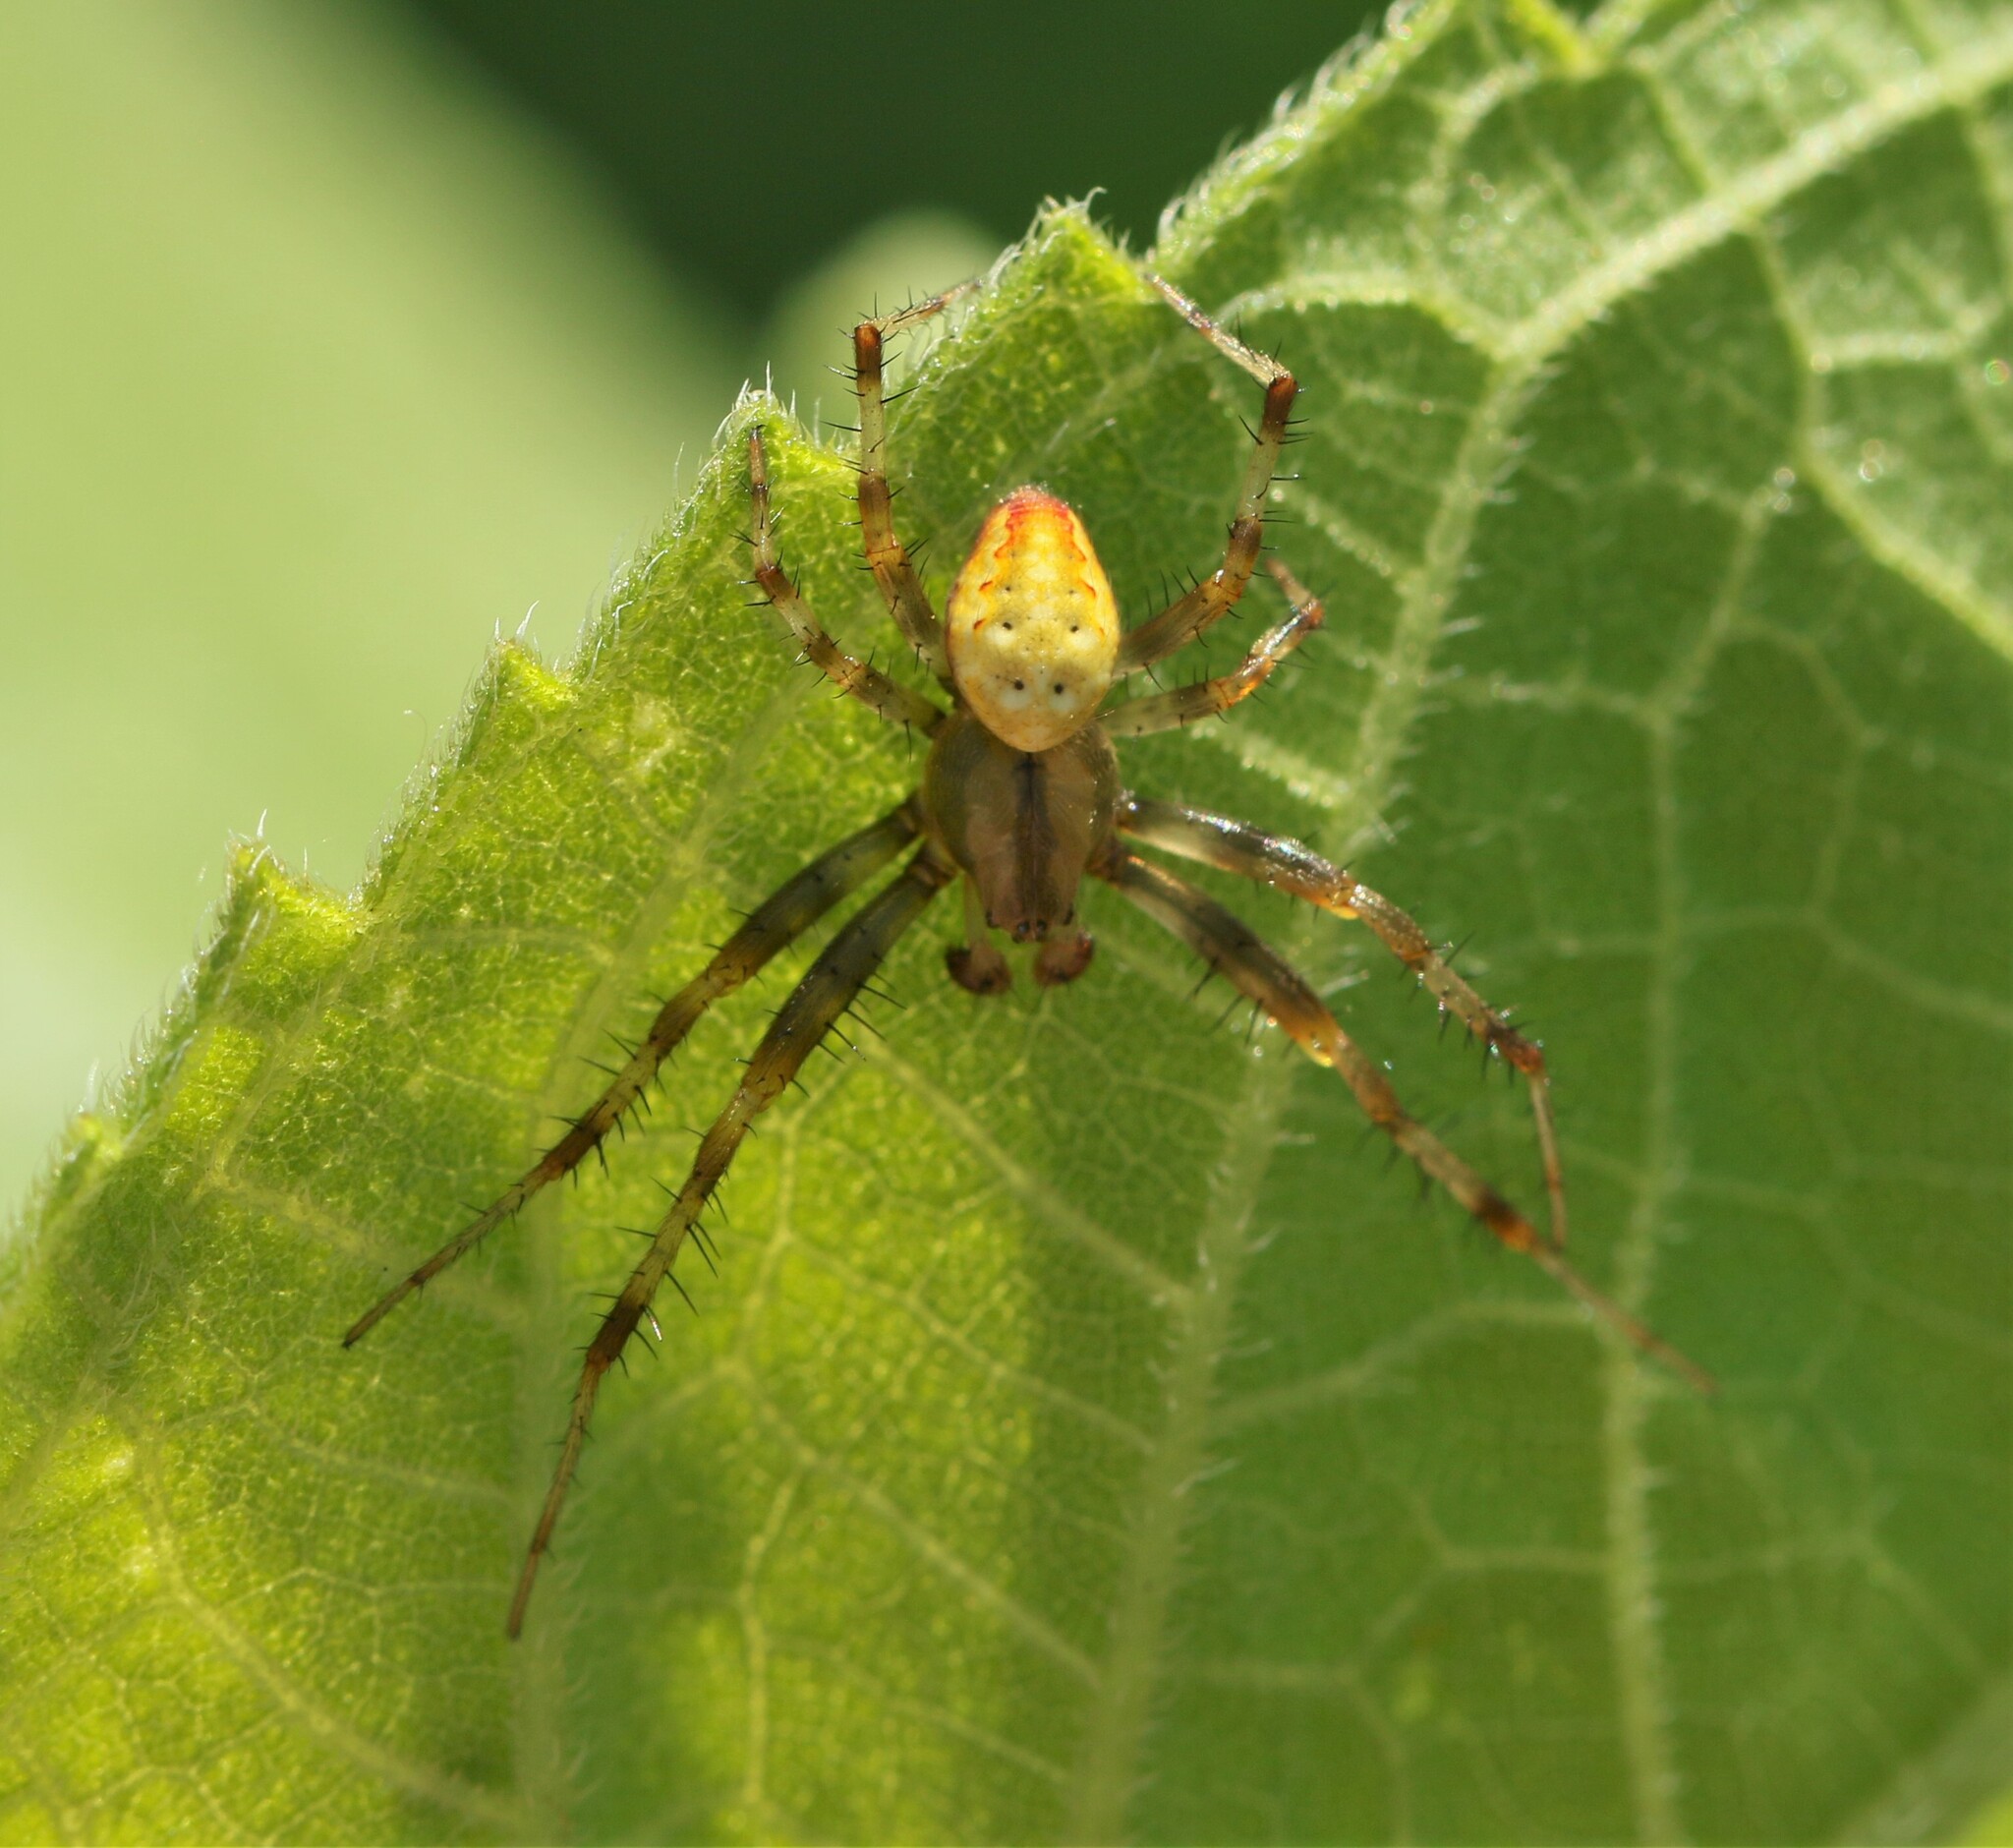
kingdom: Animalia
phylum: Arthropoda
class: Arachnida
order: Araneae
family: Araneidae
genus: Araneus
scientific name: Araneus trifolium
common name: Shamrock orbweaver
